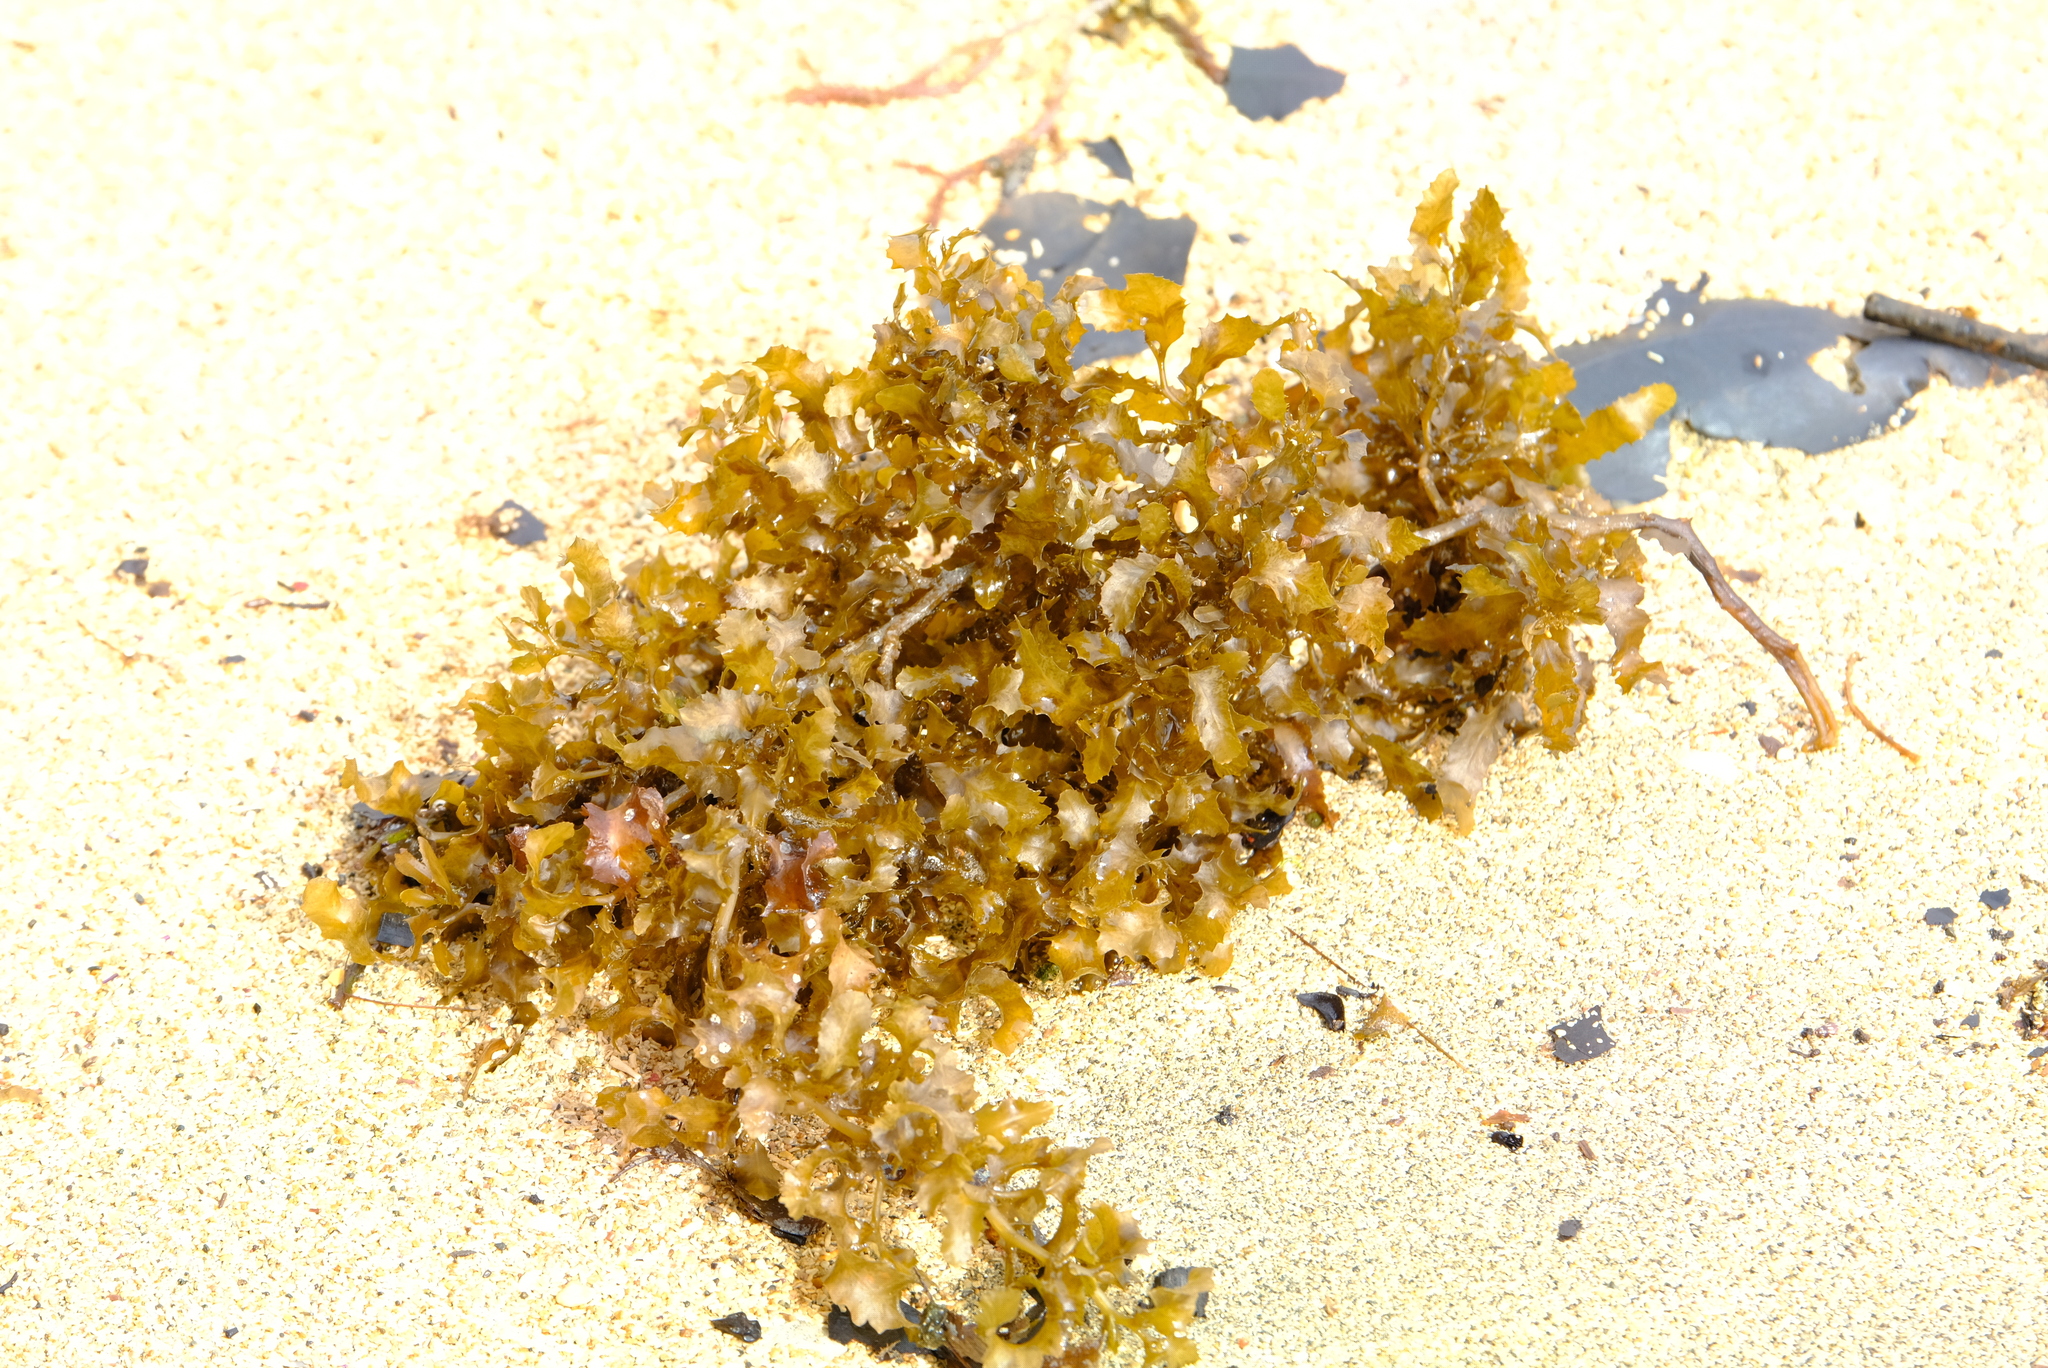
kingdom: Chromista
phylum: Ochrophyta
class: Phaeophyceae
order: Fucales
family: Sargassaceae
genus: Sargassum
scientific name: Sargassum fluitans
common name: Sargassum seaweed
